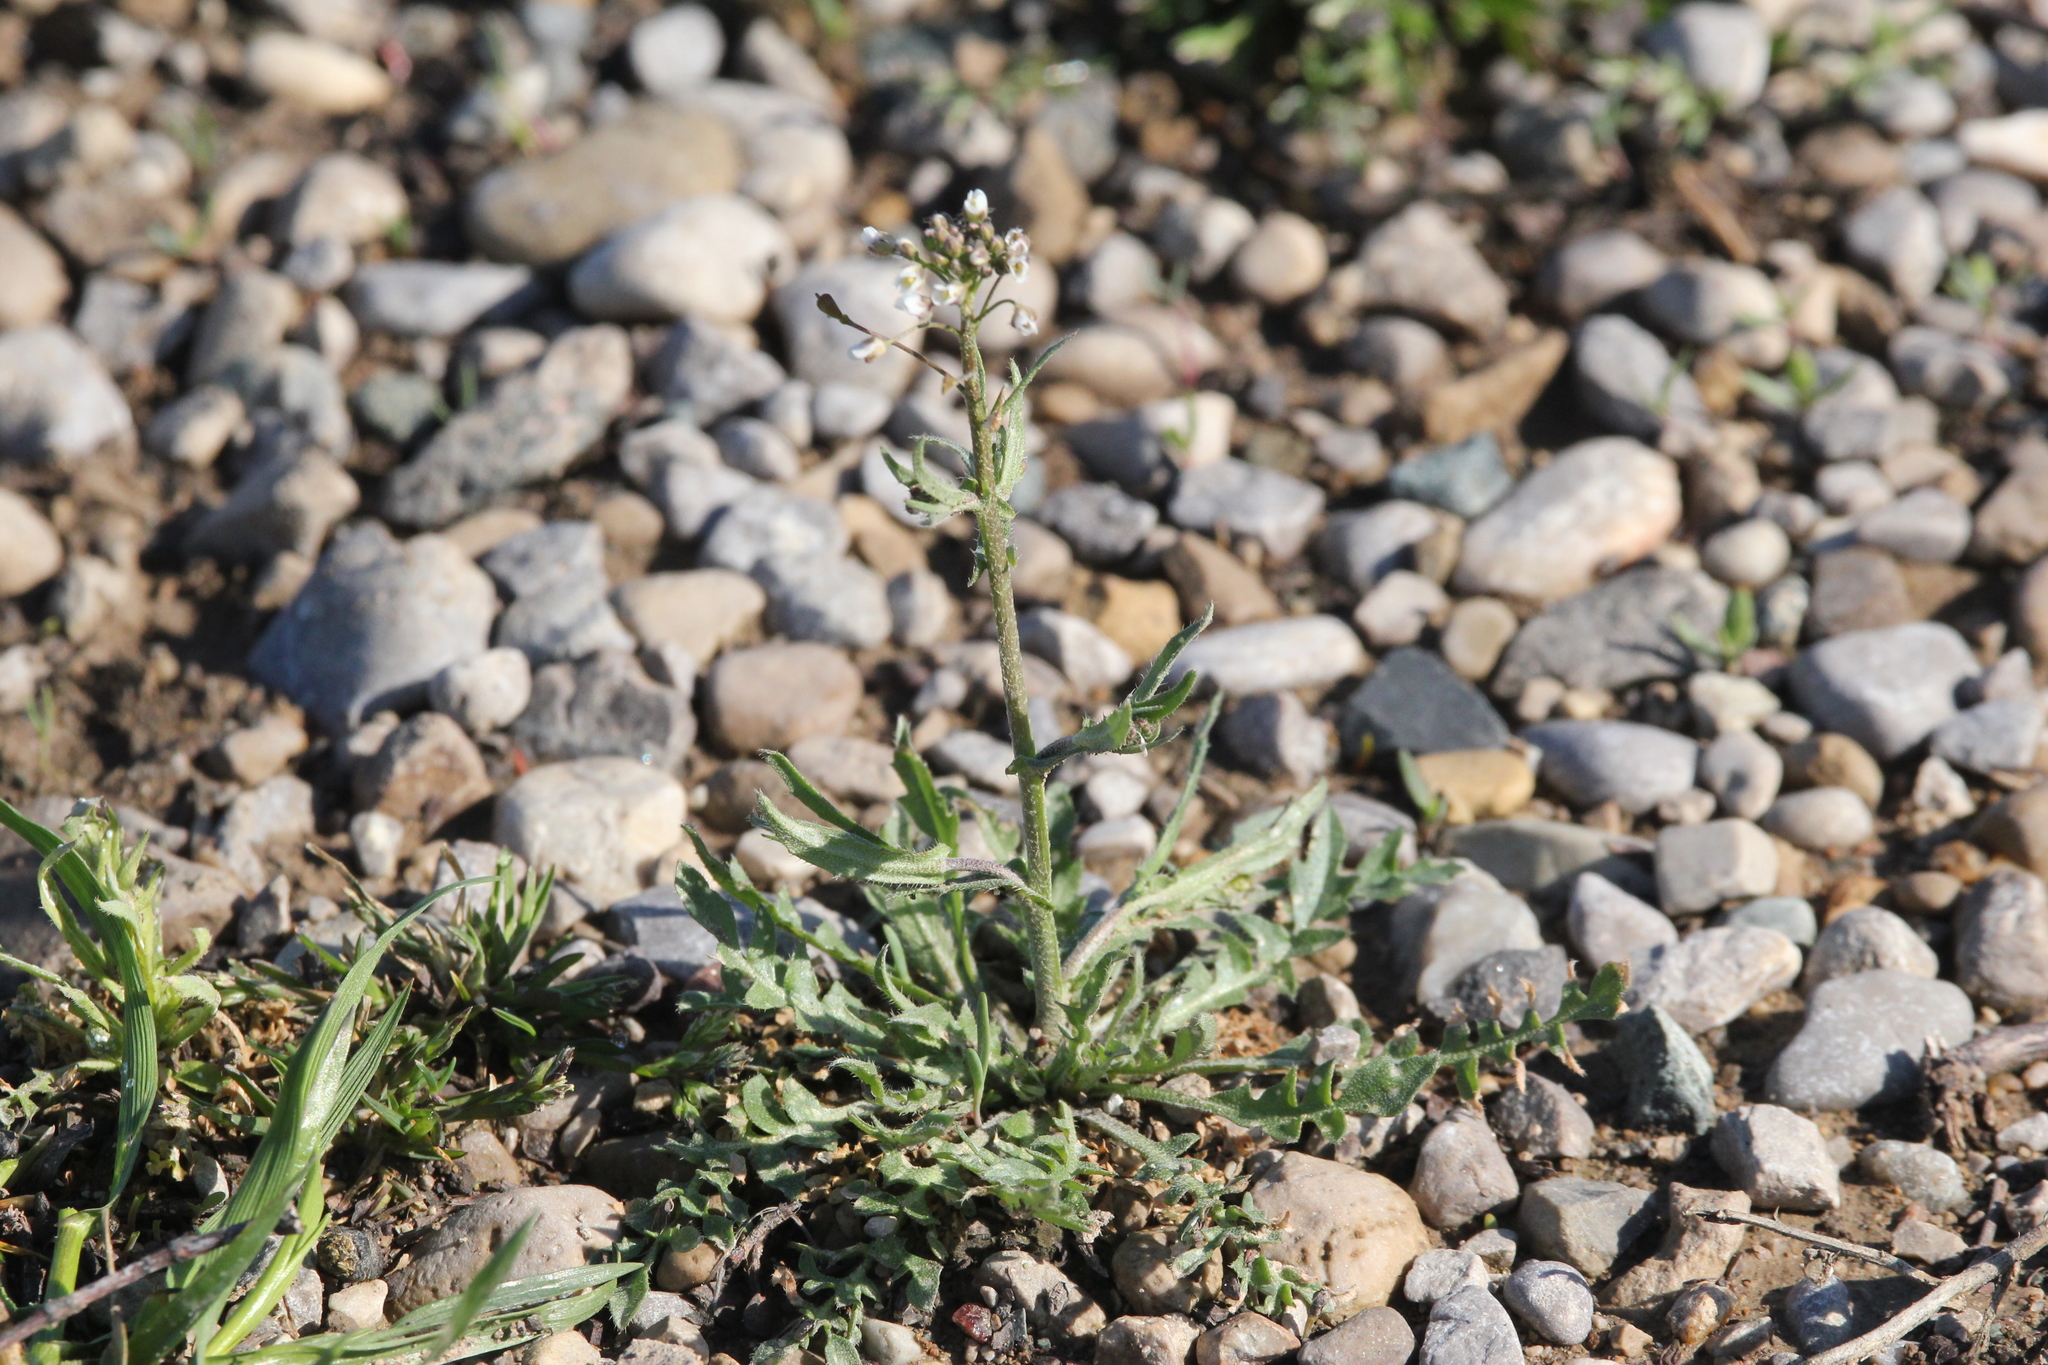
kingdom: Plantae
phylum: Tracheophyta
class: Magnoliopsida
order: Brassicales
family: Brassicaceae
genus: Capsella
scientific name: Capsella bursa-pastoris
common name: Shepherd's purse
